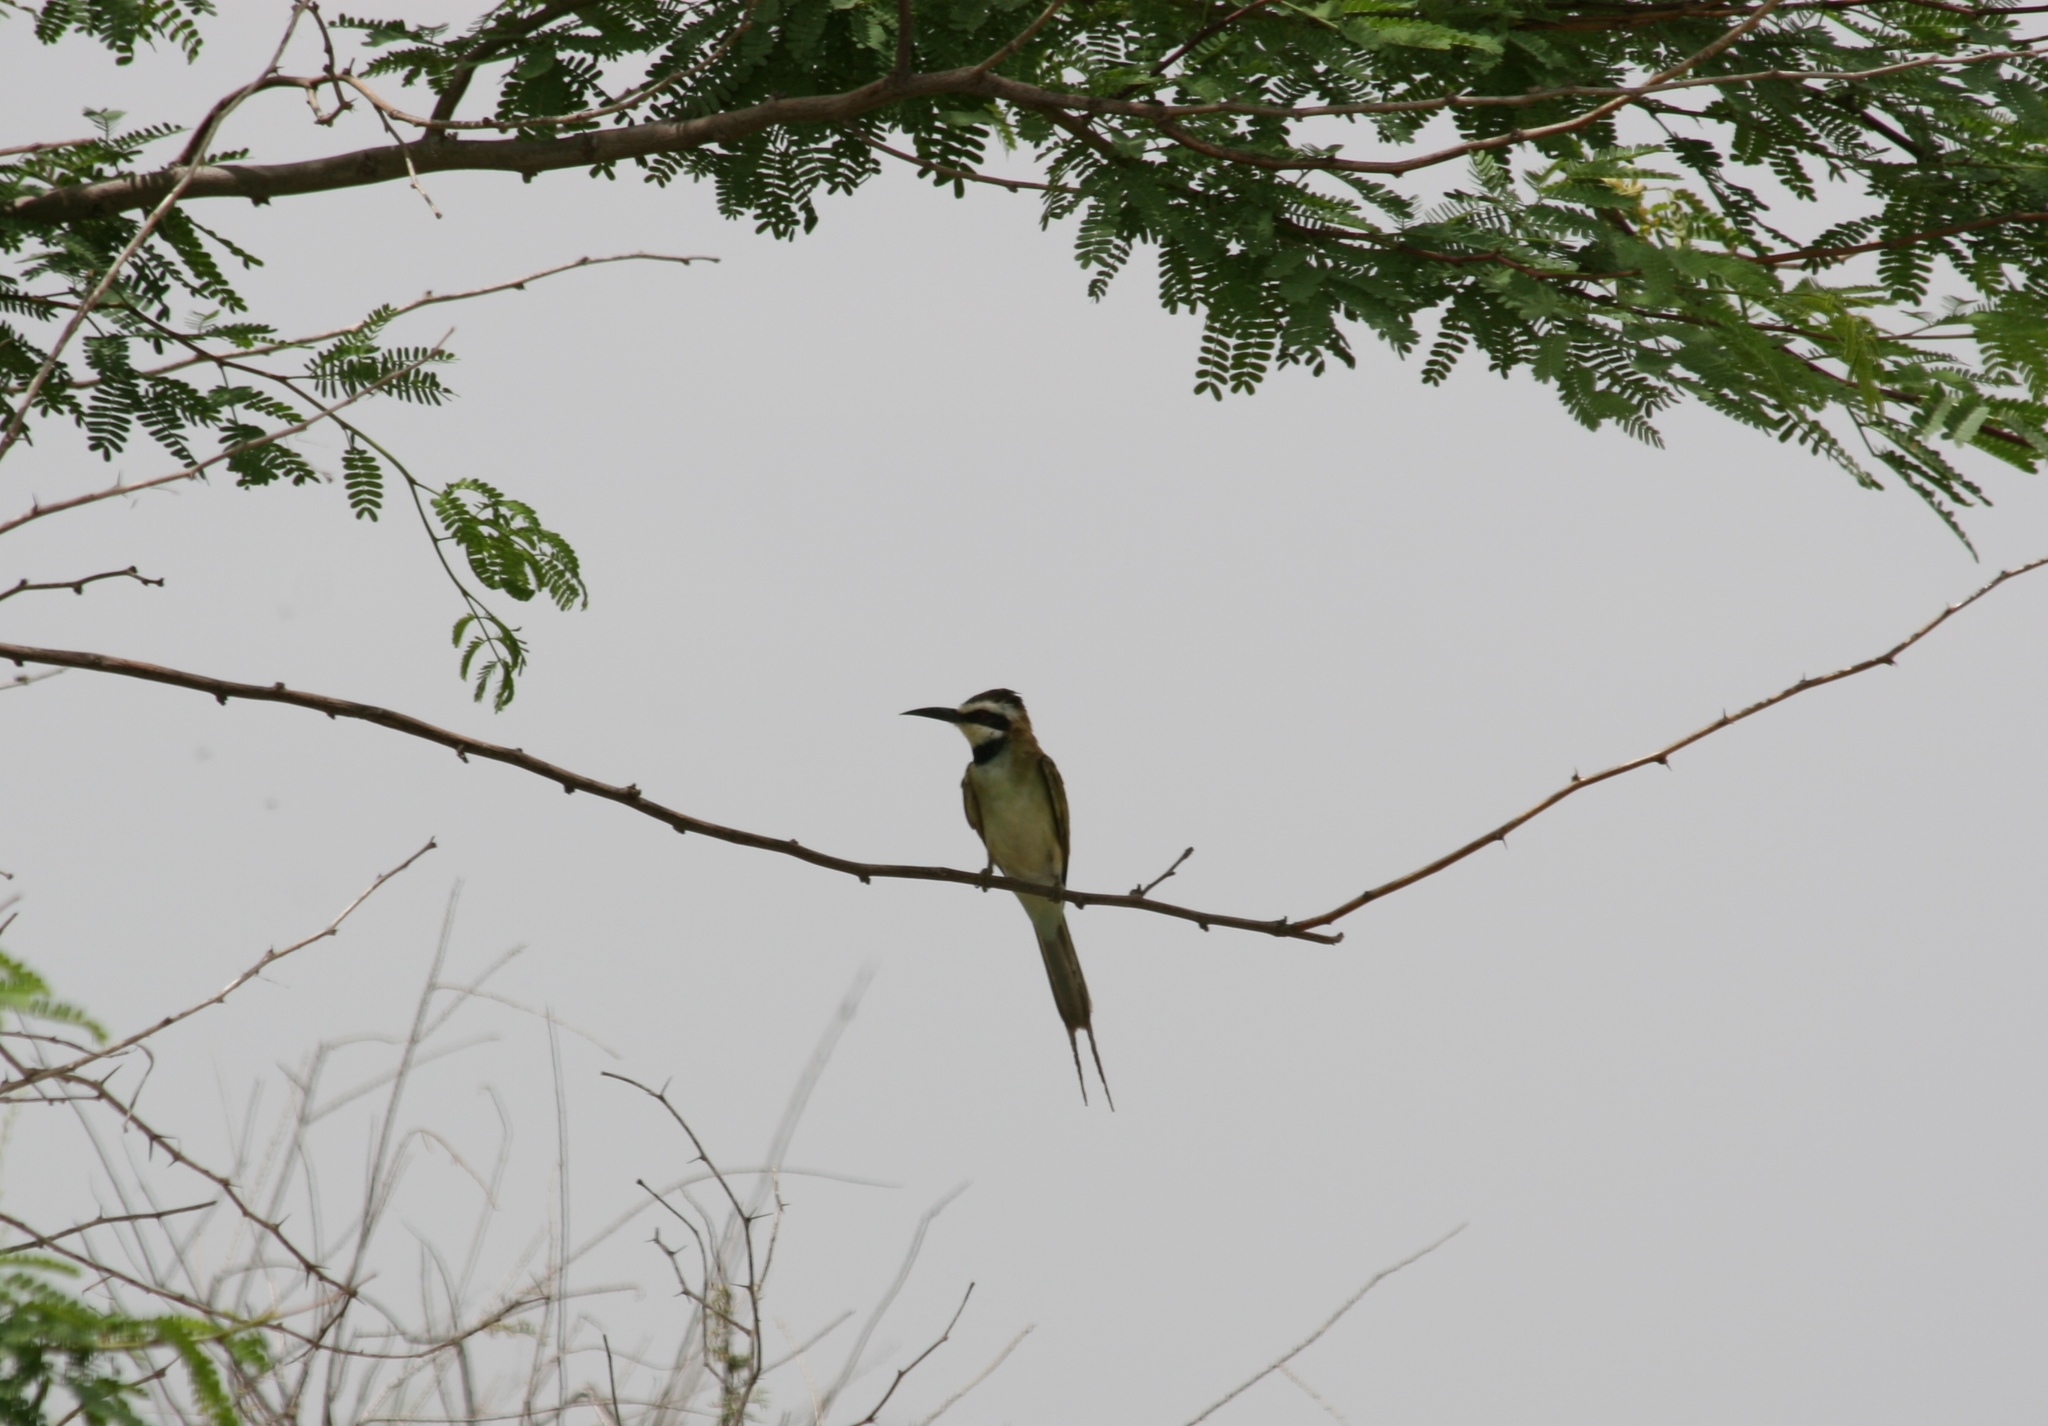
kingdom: Animalia
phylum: Chordata
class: Aves
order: Coraciiformes
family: Meropidae
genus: Merops
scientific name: Merops albicollis
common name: White-throated bee-eater
